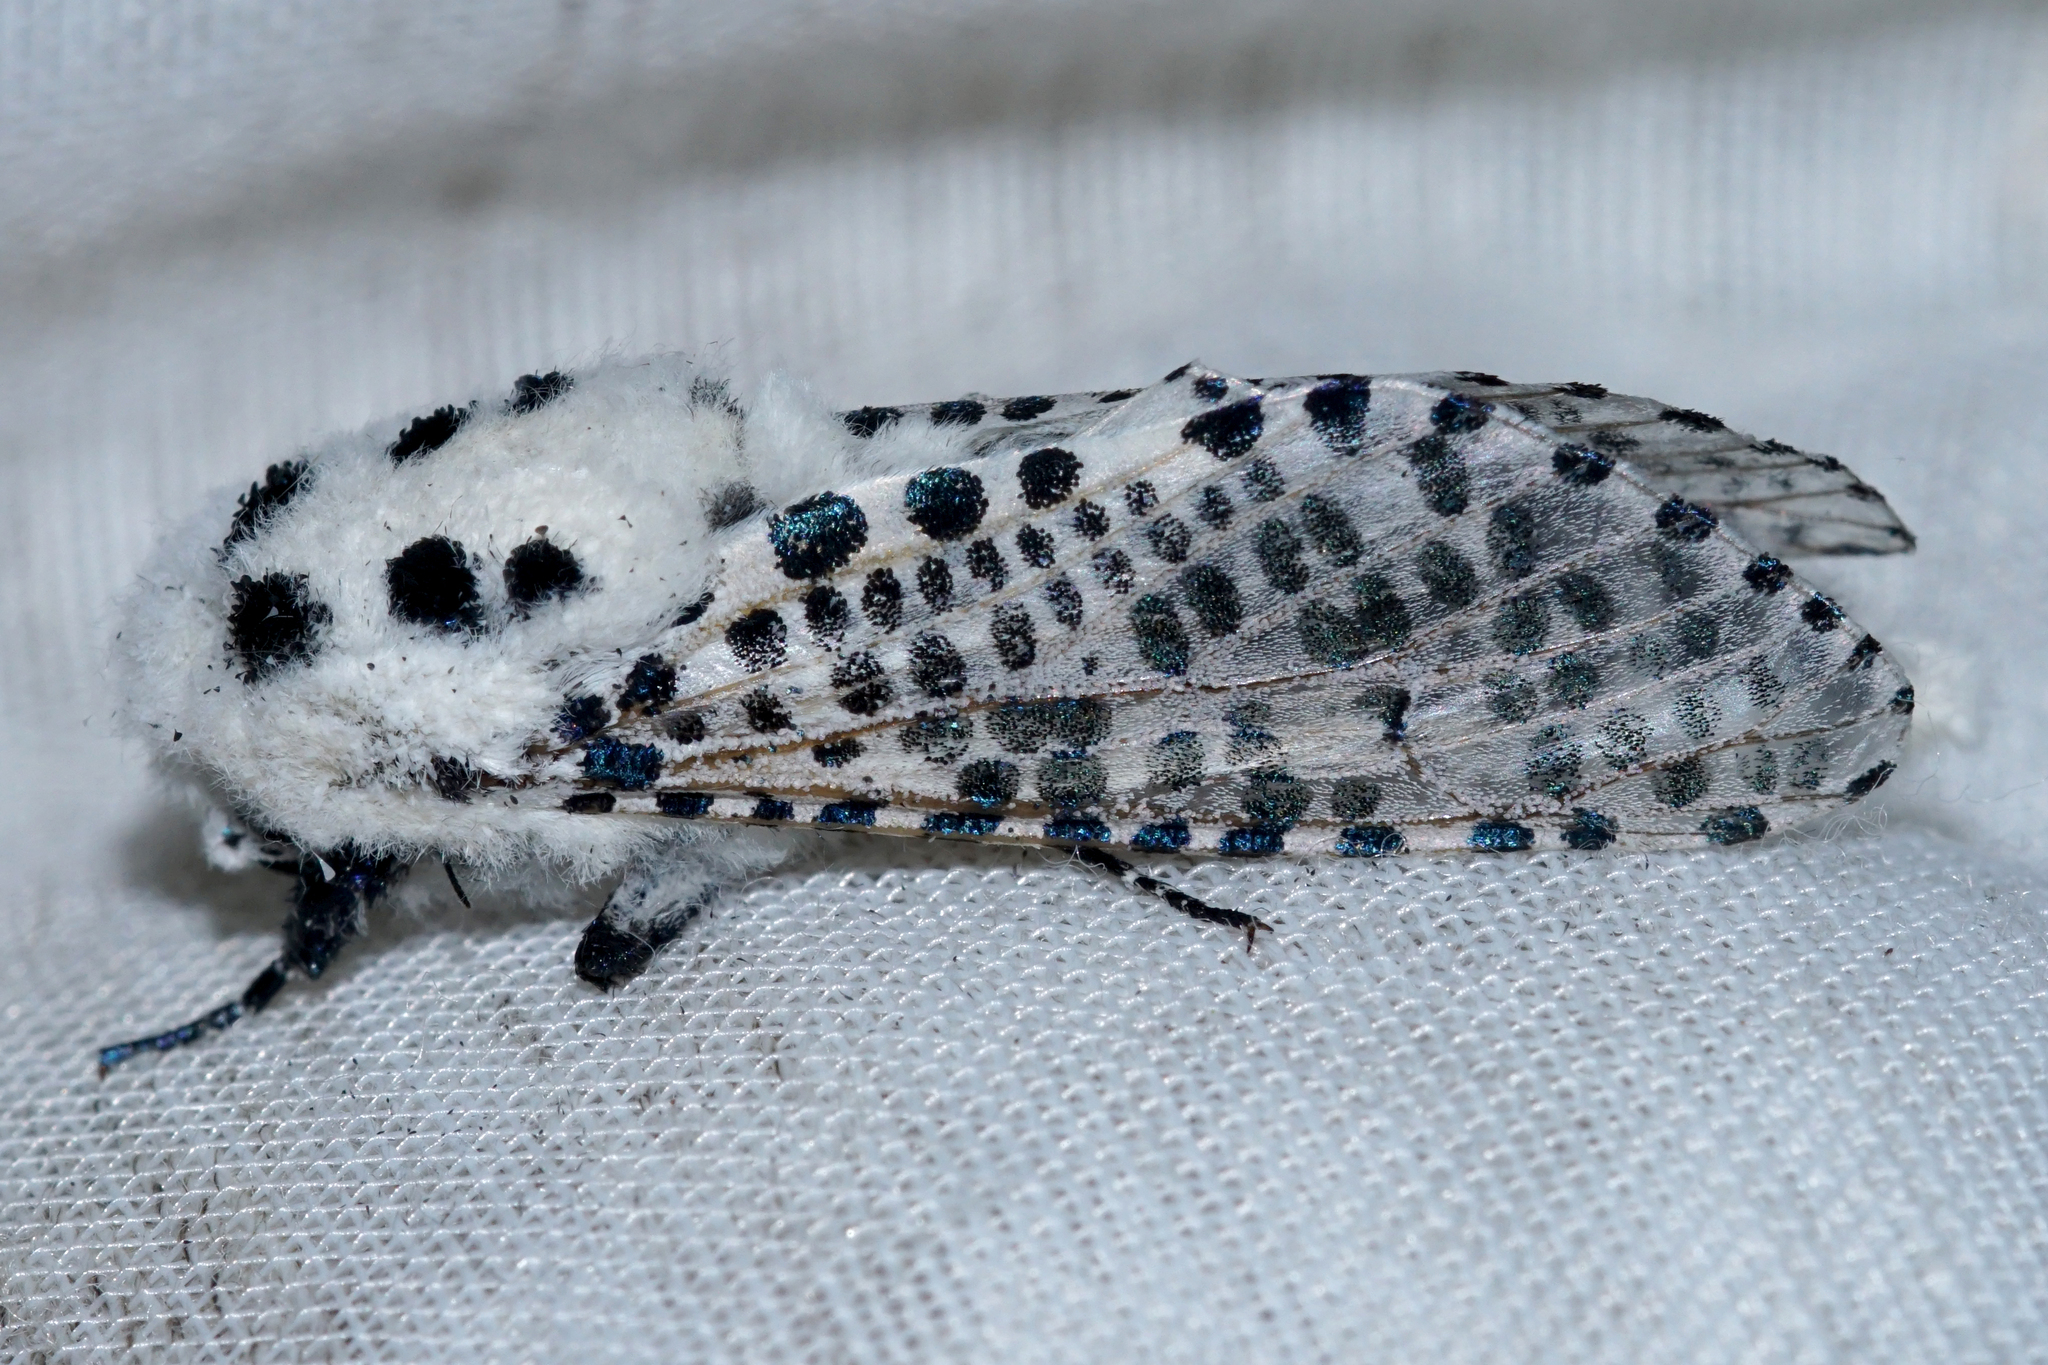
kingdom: Animalia
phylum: Arthropoda
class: Insecta
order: Lepidoptera
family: Cossidae
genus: Zeuzera
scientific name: Zeuzera pyrina
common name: Leopard moth
